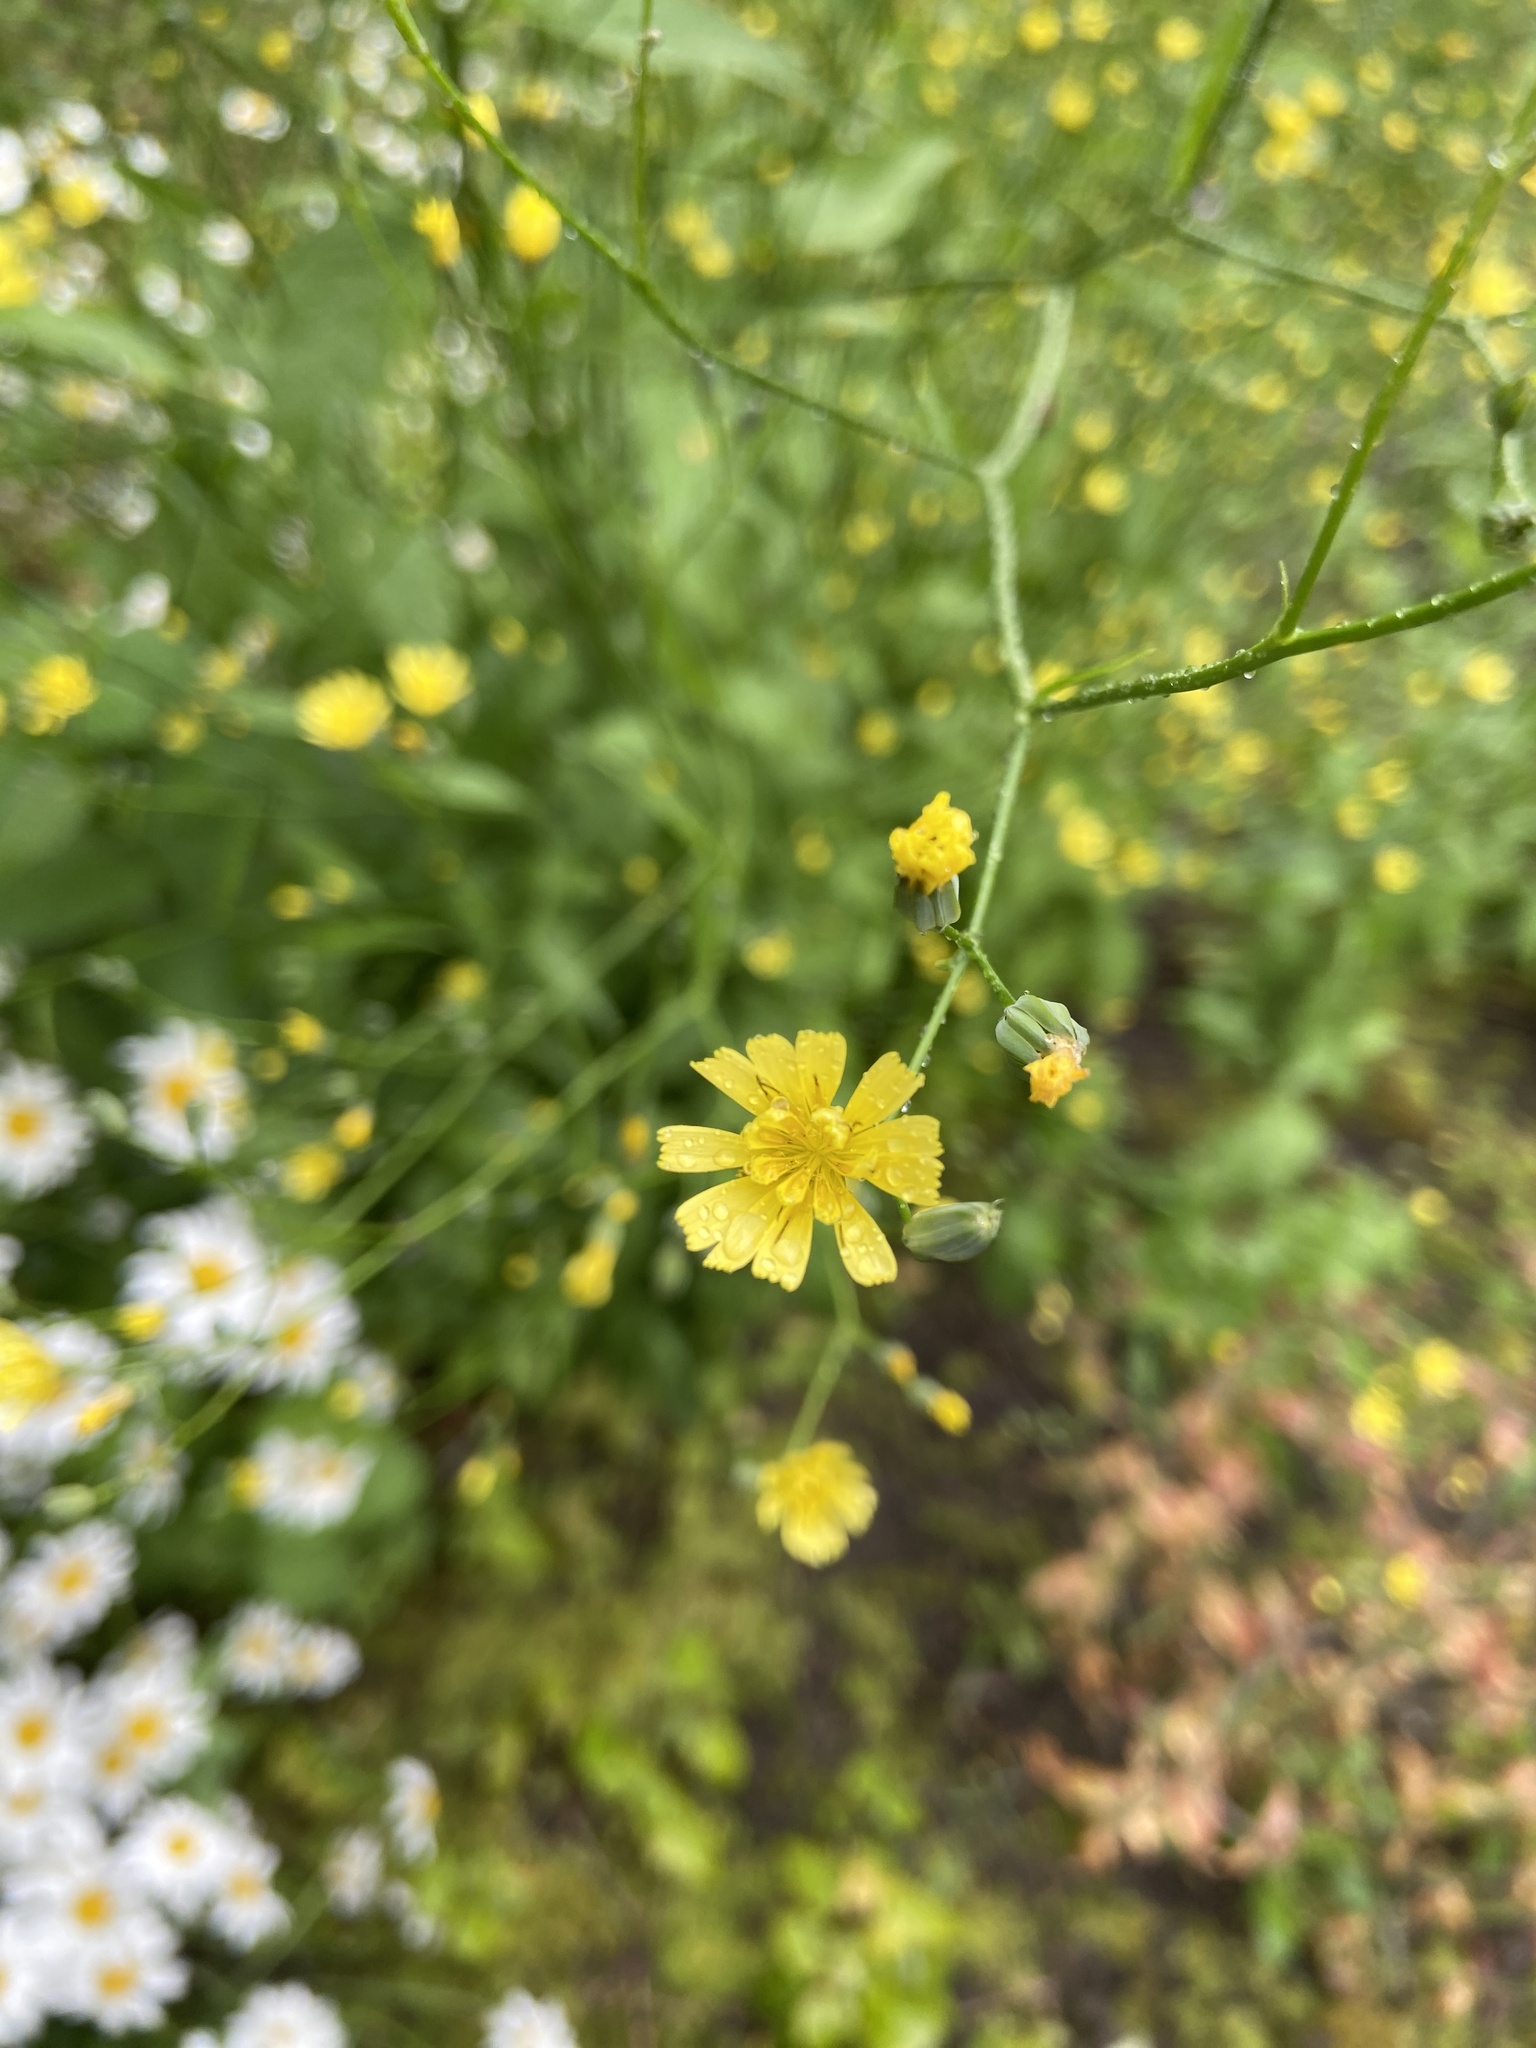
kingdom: Plantae
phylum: Tracheophyta
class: Magnoliopsida
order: Asterales
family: Asteraceae
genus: Lapsana
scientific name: Lapsana communis
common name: Nipplewort
